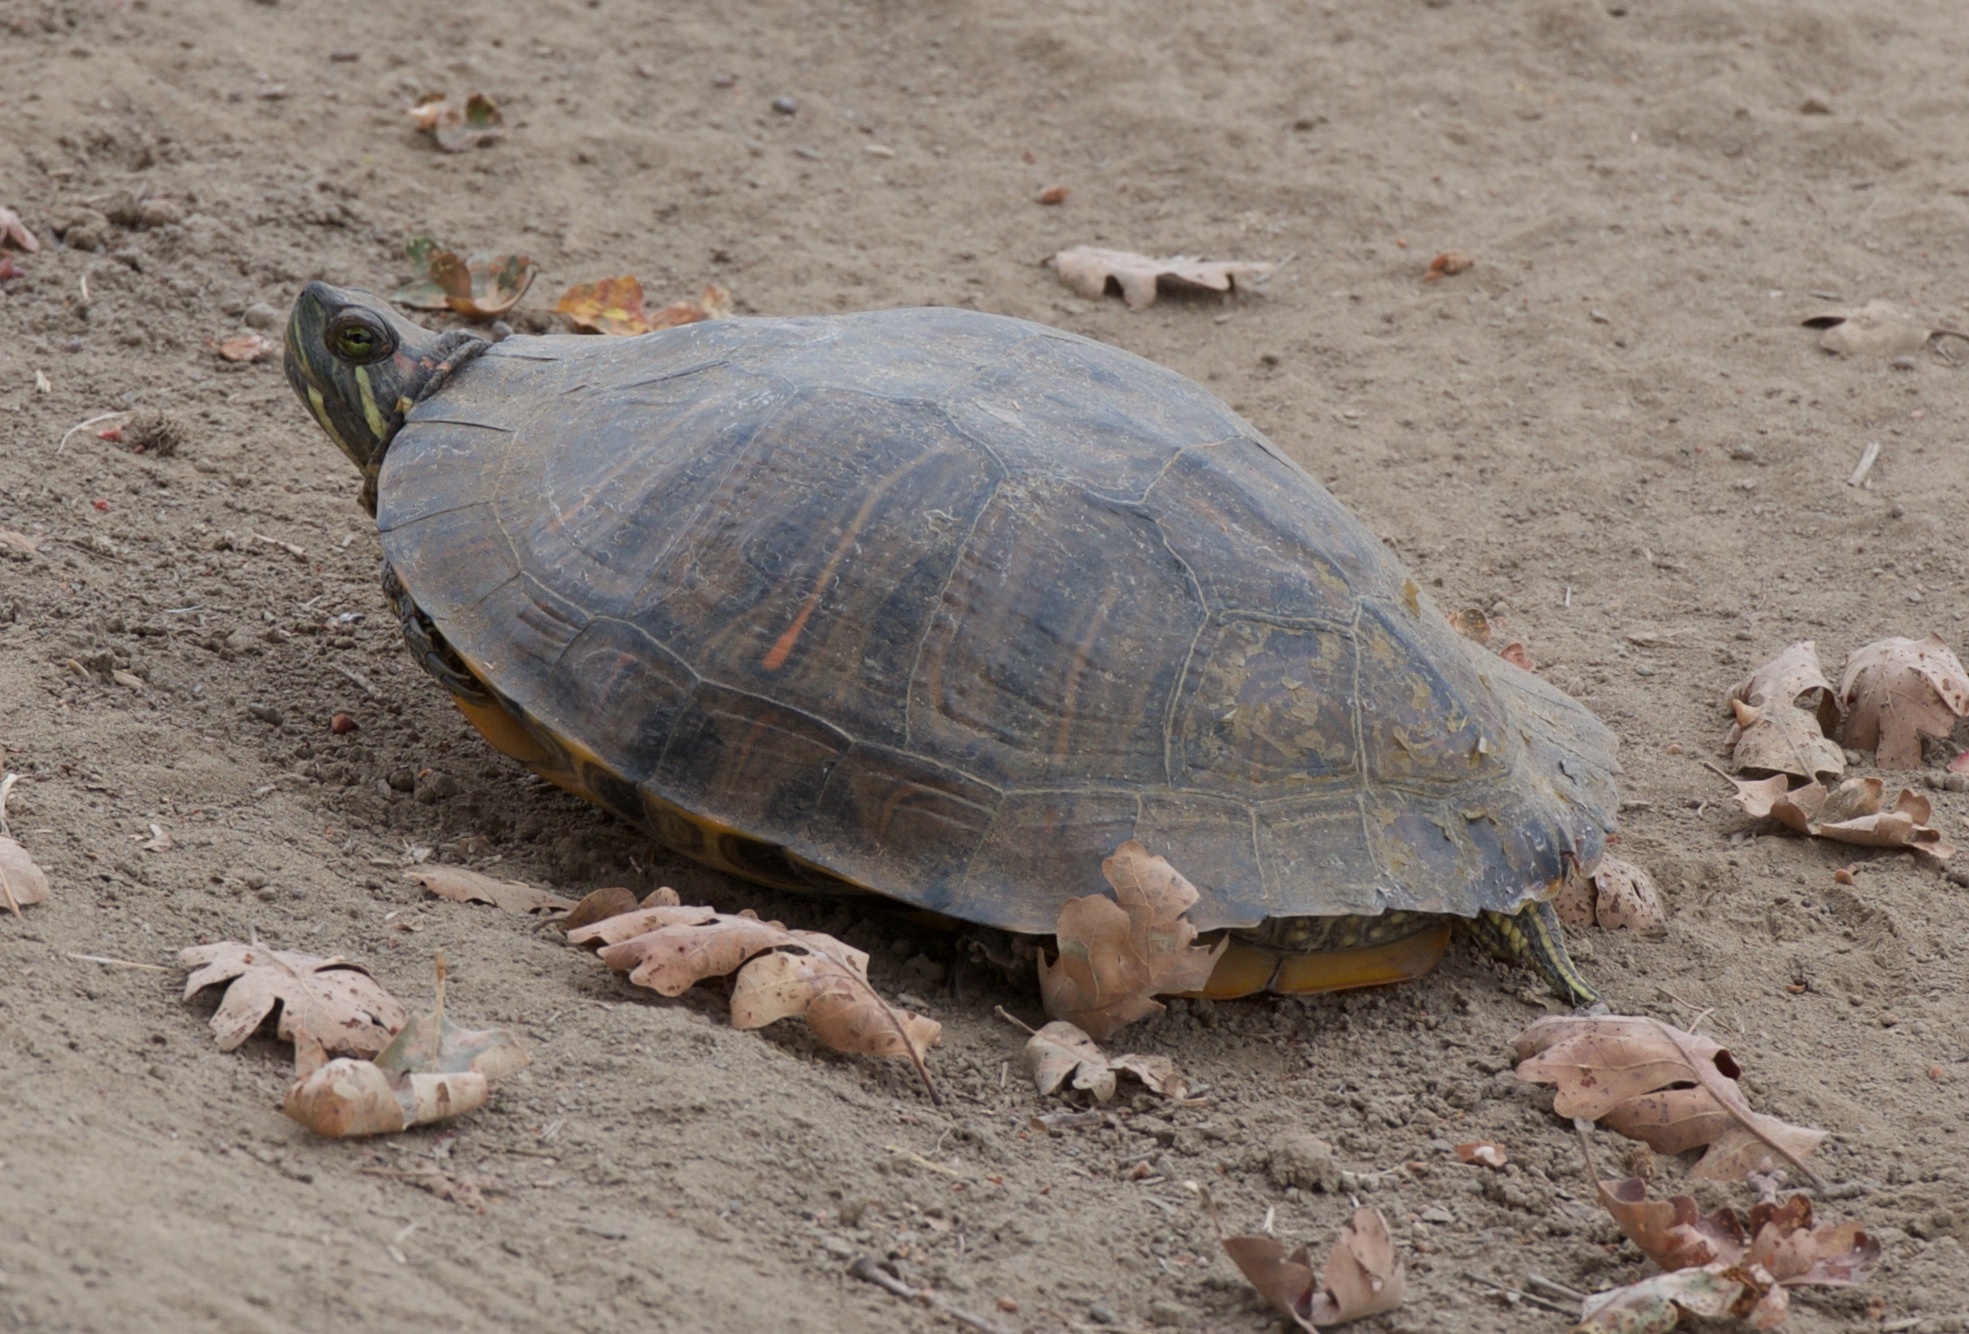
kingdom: Animalia
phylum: Chordata
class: Testudines
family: Emydidae
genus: Trachemys
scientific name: Trachemys scripta
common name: Slider
